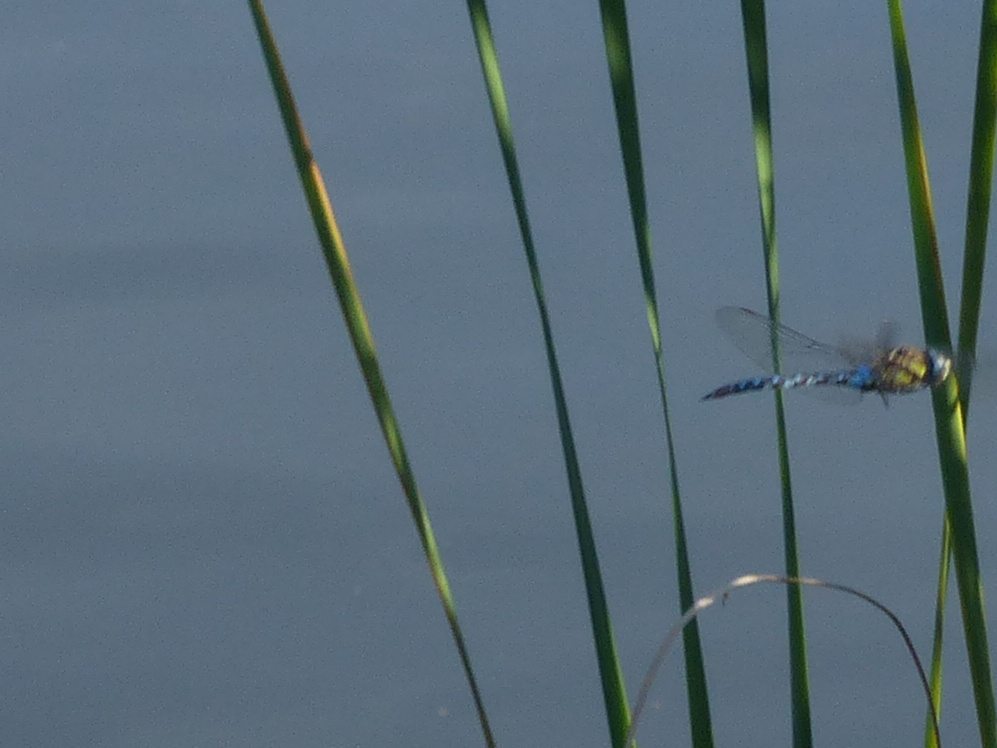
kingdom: Animalia
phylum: Arthropoda
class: Insecta
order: Odonata
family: Aeshnidae
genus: Aeshna
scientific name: Aeshna mixta
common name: Migrant hawker
